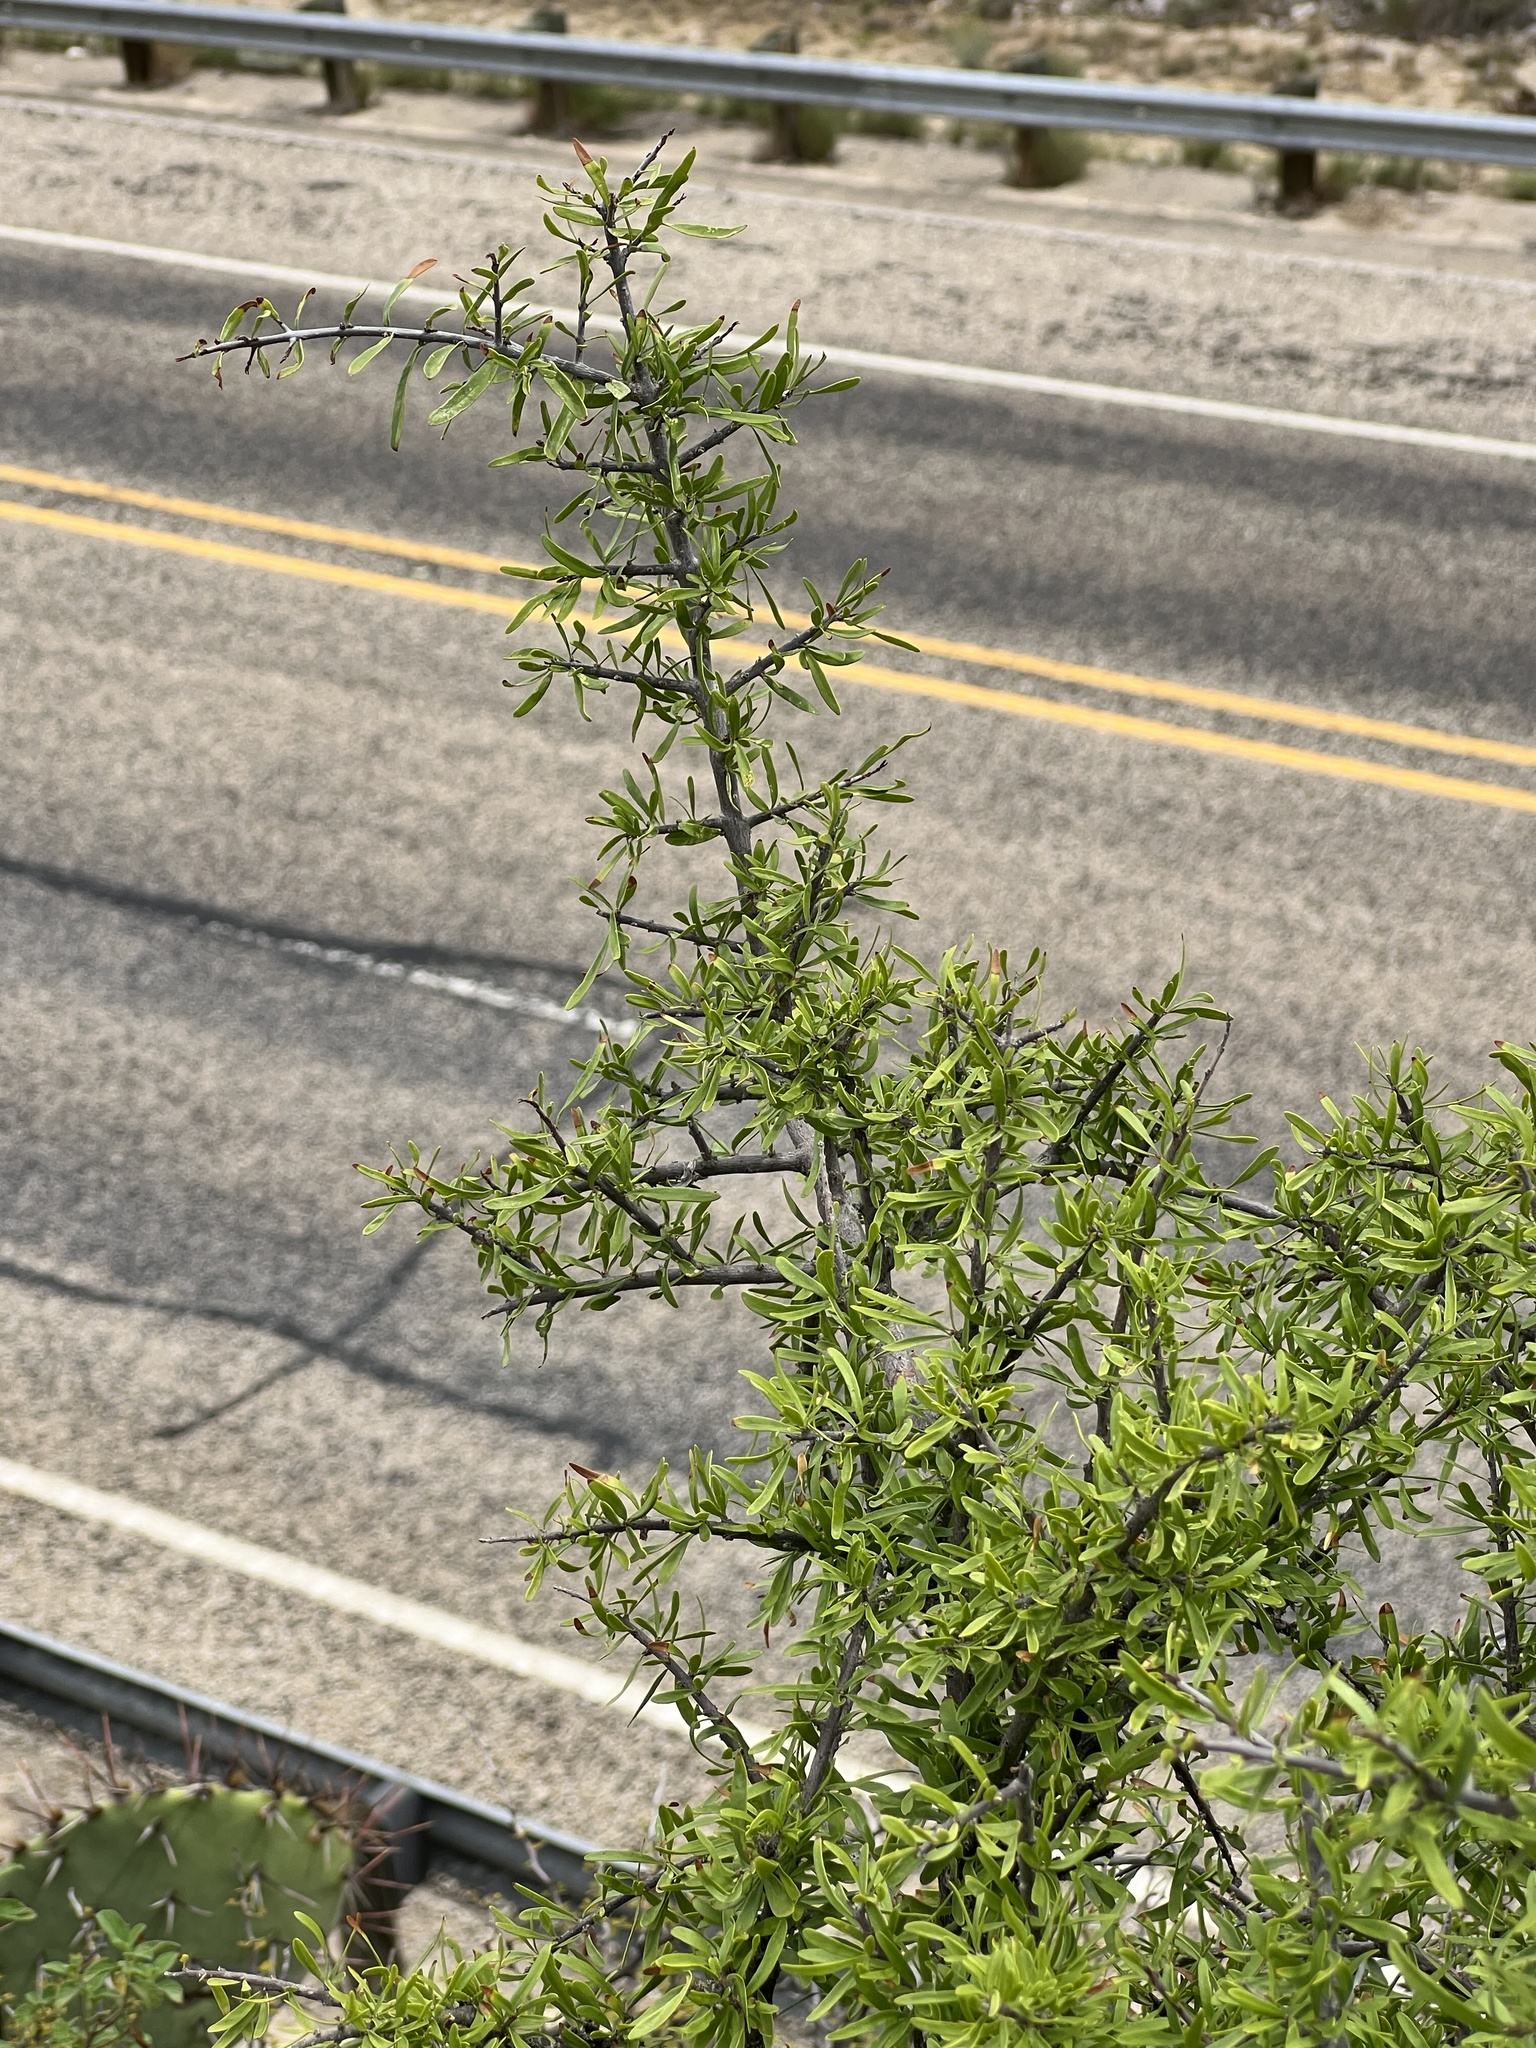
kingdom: Plantae
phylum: Tracheophyta
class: Magnoliopsida
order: Lamiales
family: Oleaceae
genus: Forestiera
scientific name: Forestiera angustifolia
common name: Elbowbush
